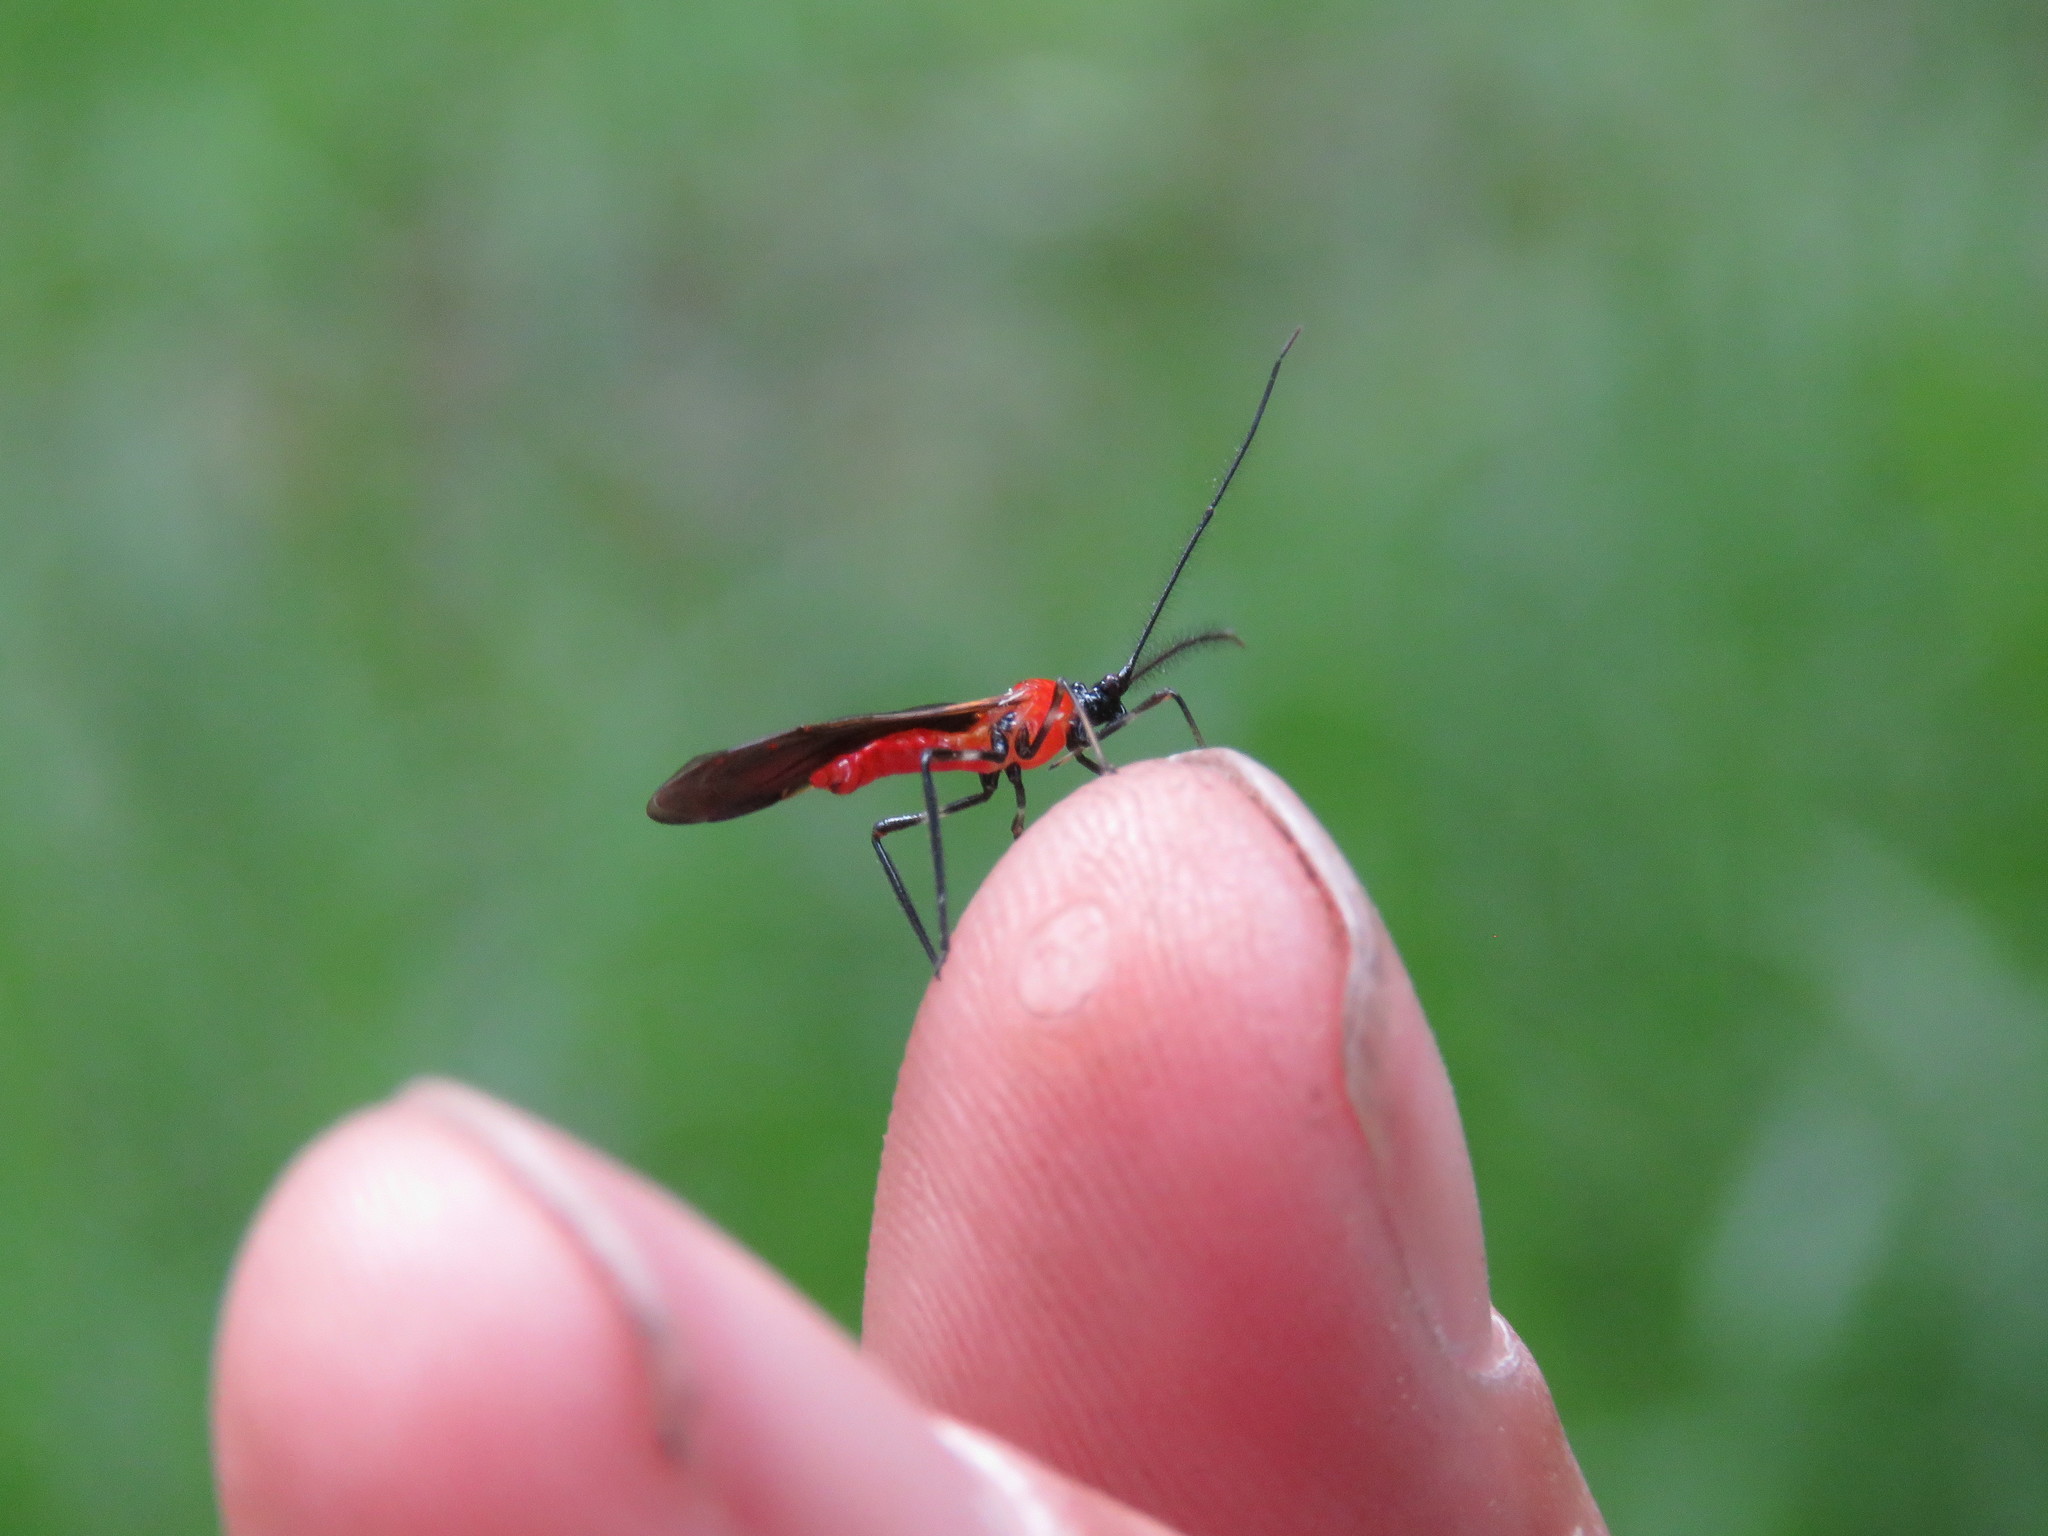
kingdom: Animalia
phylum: Arthropoda
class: Insecta
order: Hemiptera
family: Miridae
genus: Monalonion
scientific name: Monalonion velezangeli
